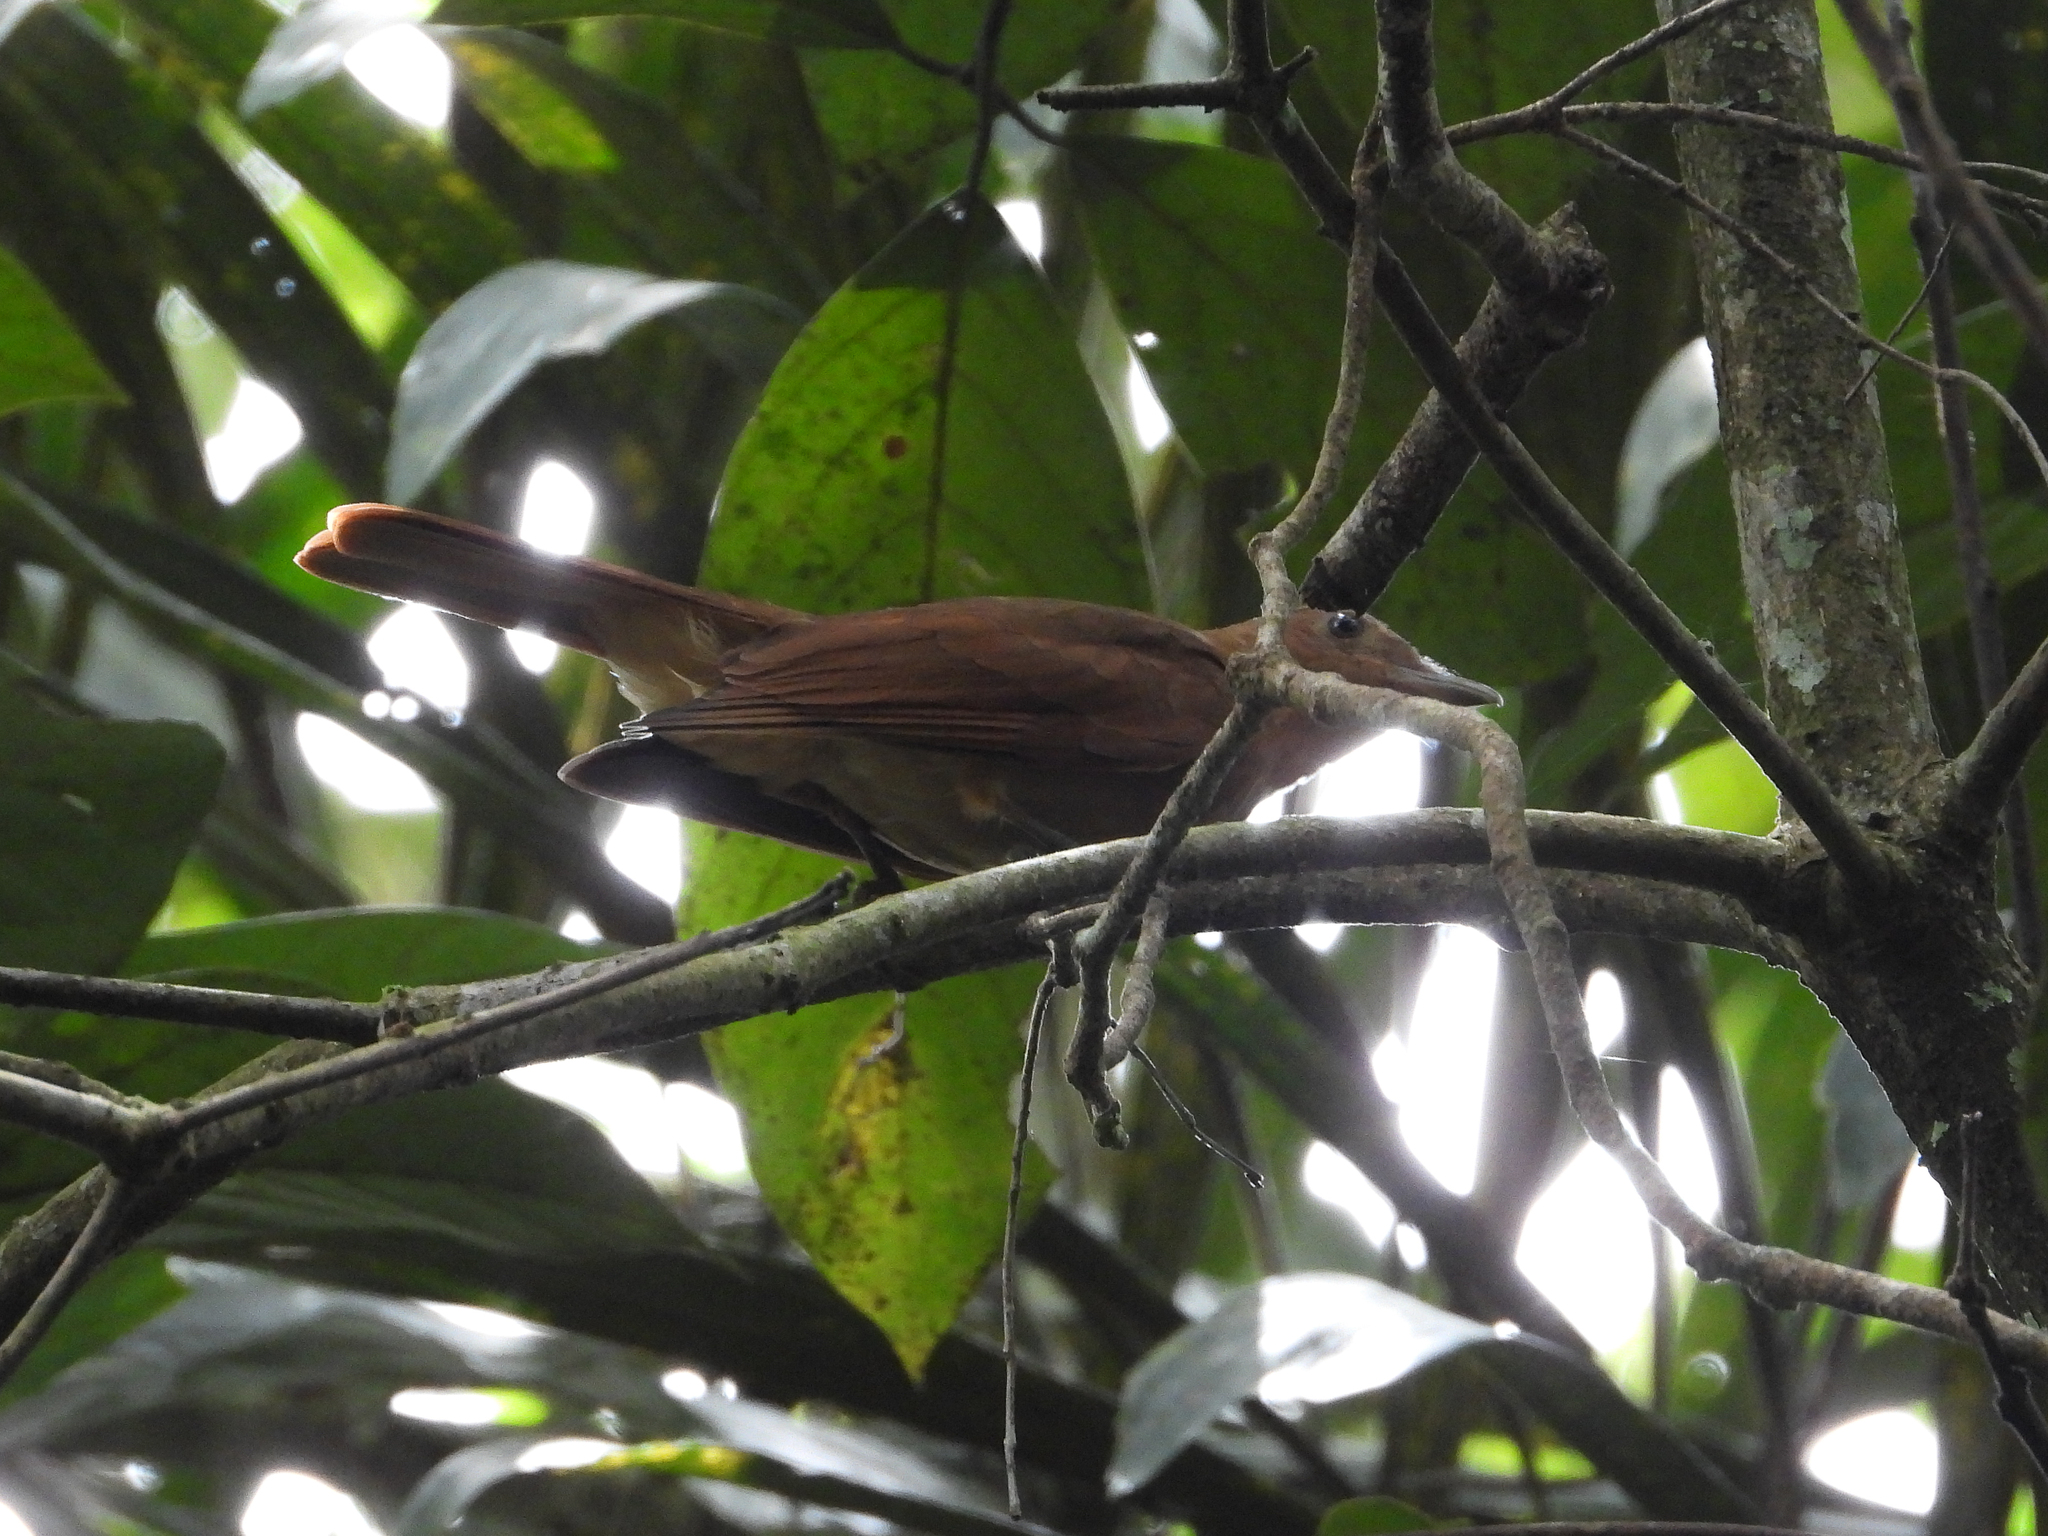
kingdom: Animalia
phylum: Chordata
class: Aves
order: Passeriformes
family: Cotingidae
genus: Lipaugus
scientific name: Lipaugus unirufus
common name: Rufous piha
